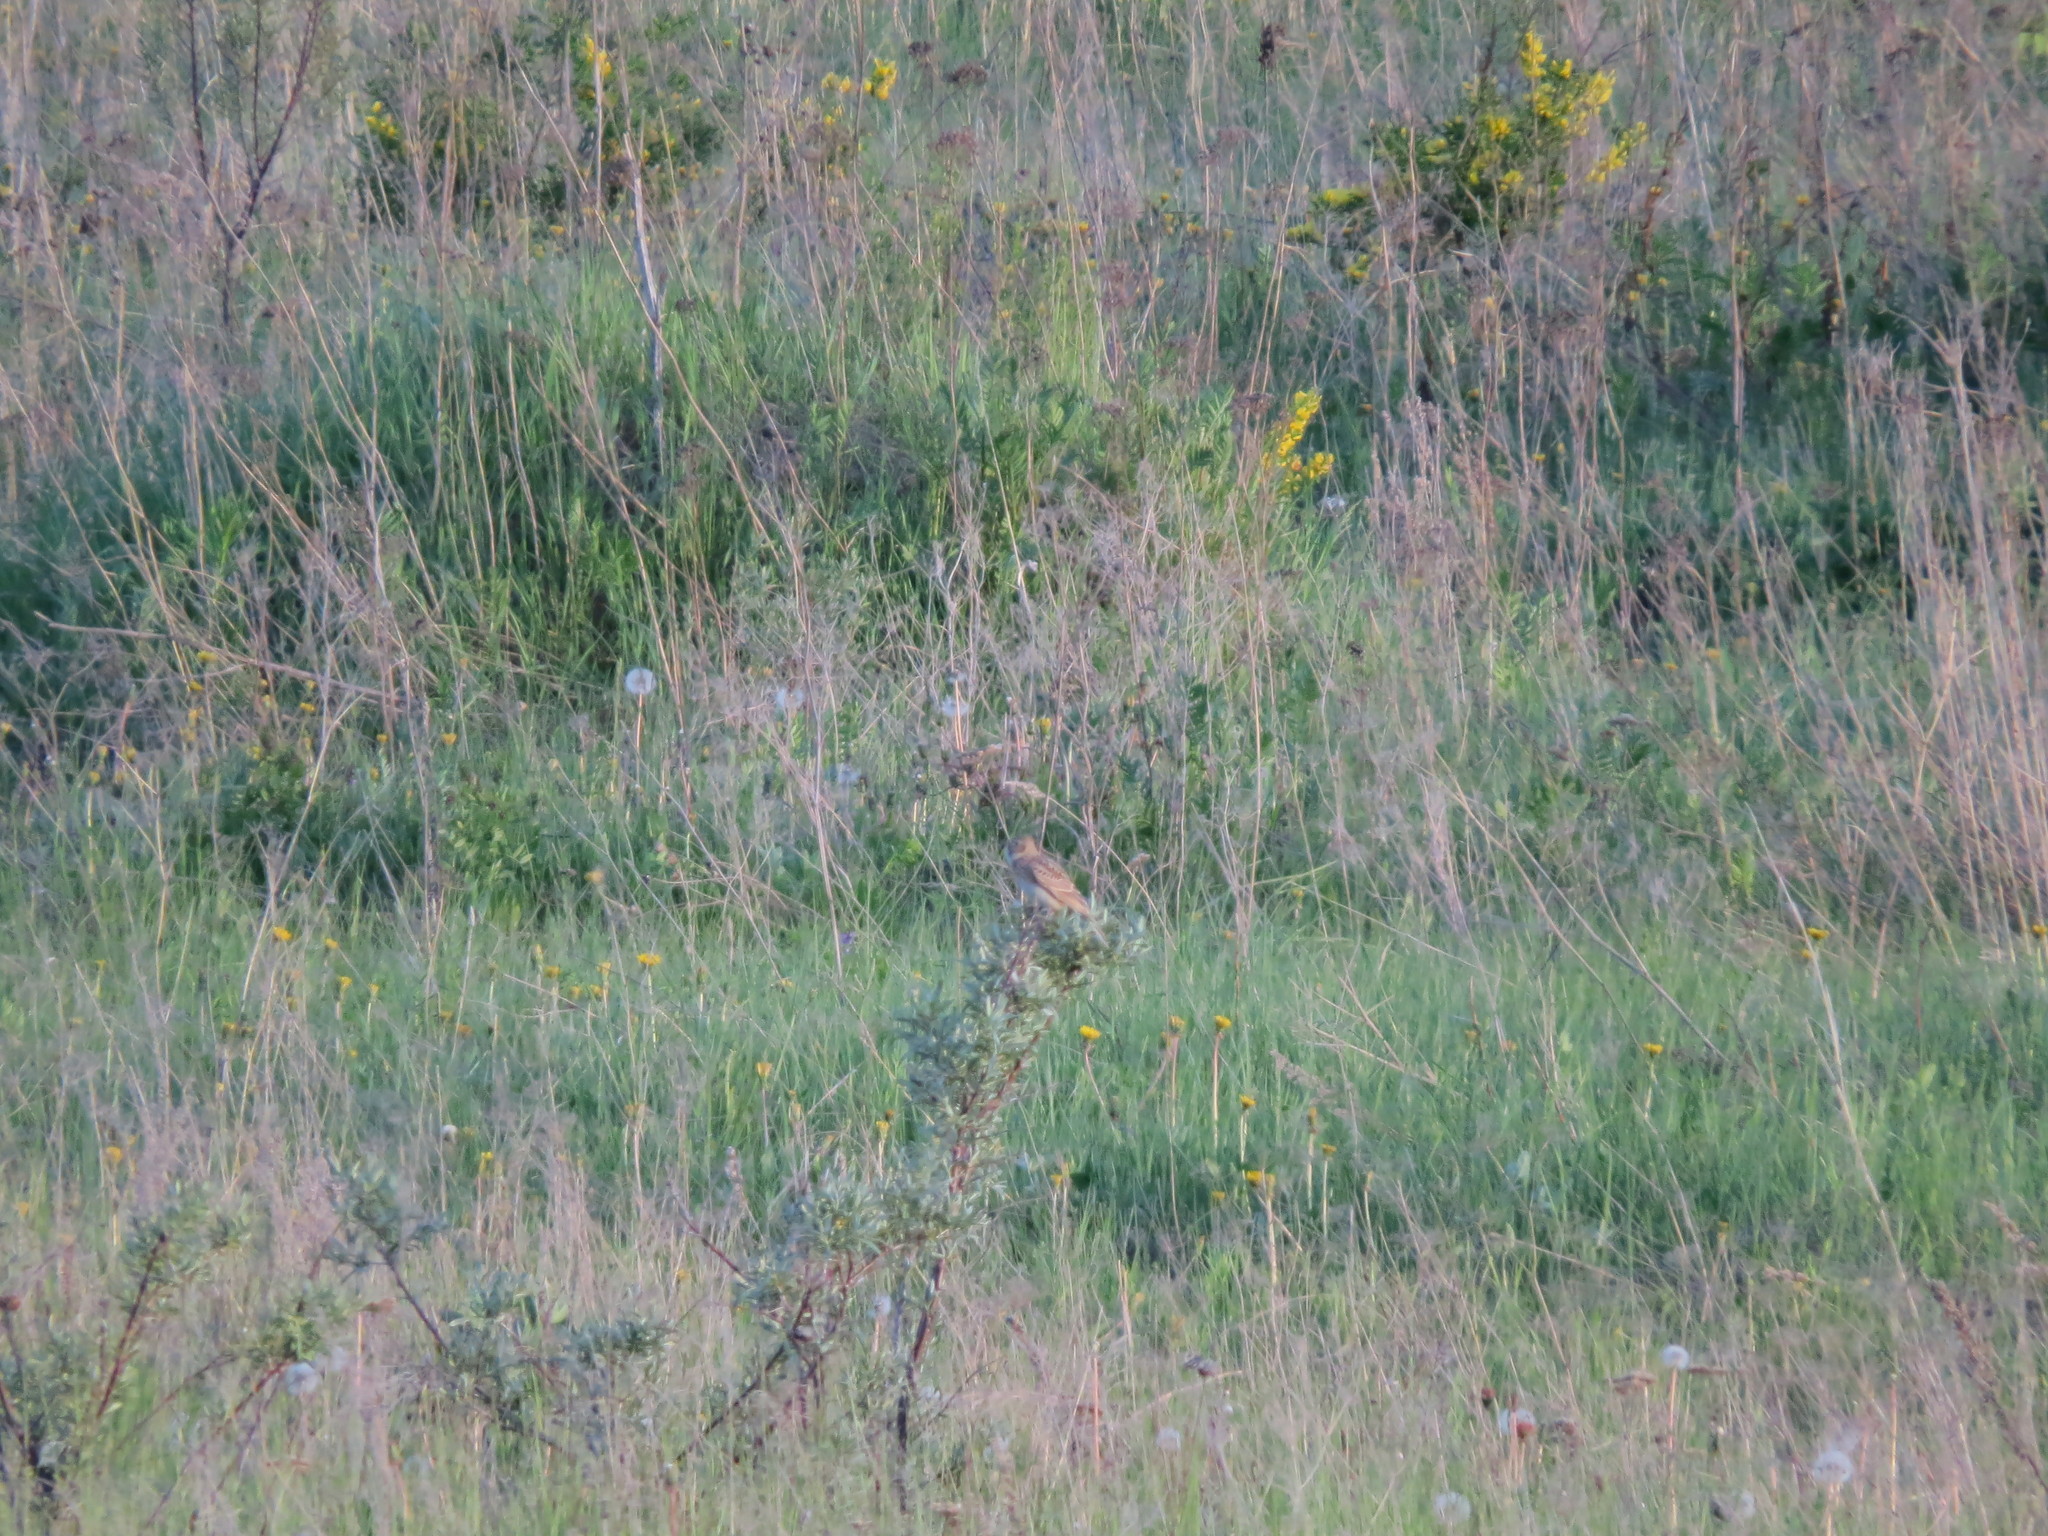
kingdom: Animalia
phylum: Chordata
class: Aves
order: Passeriformes
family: Alaudidae
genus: Alauda
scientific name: Alauda arvensis
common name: Eurasian skylark
